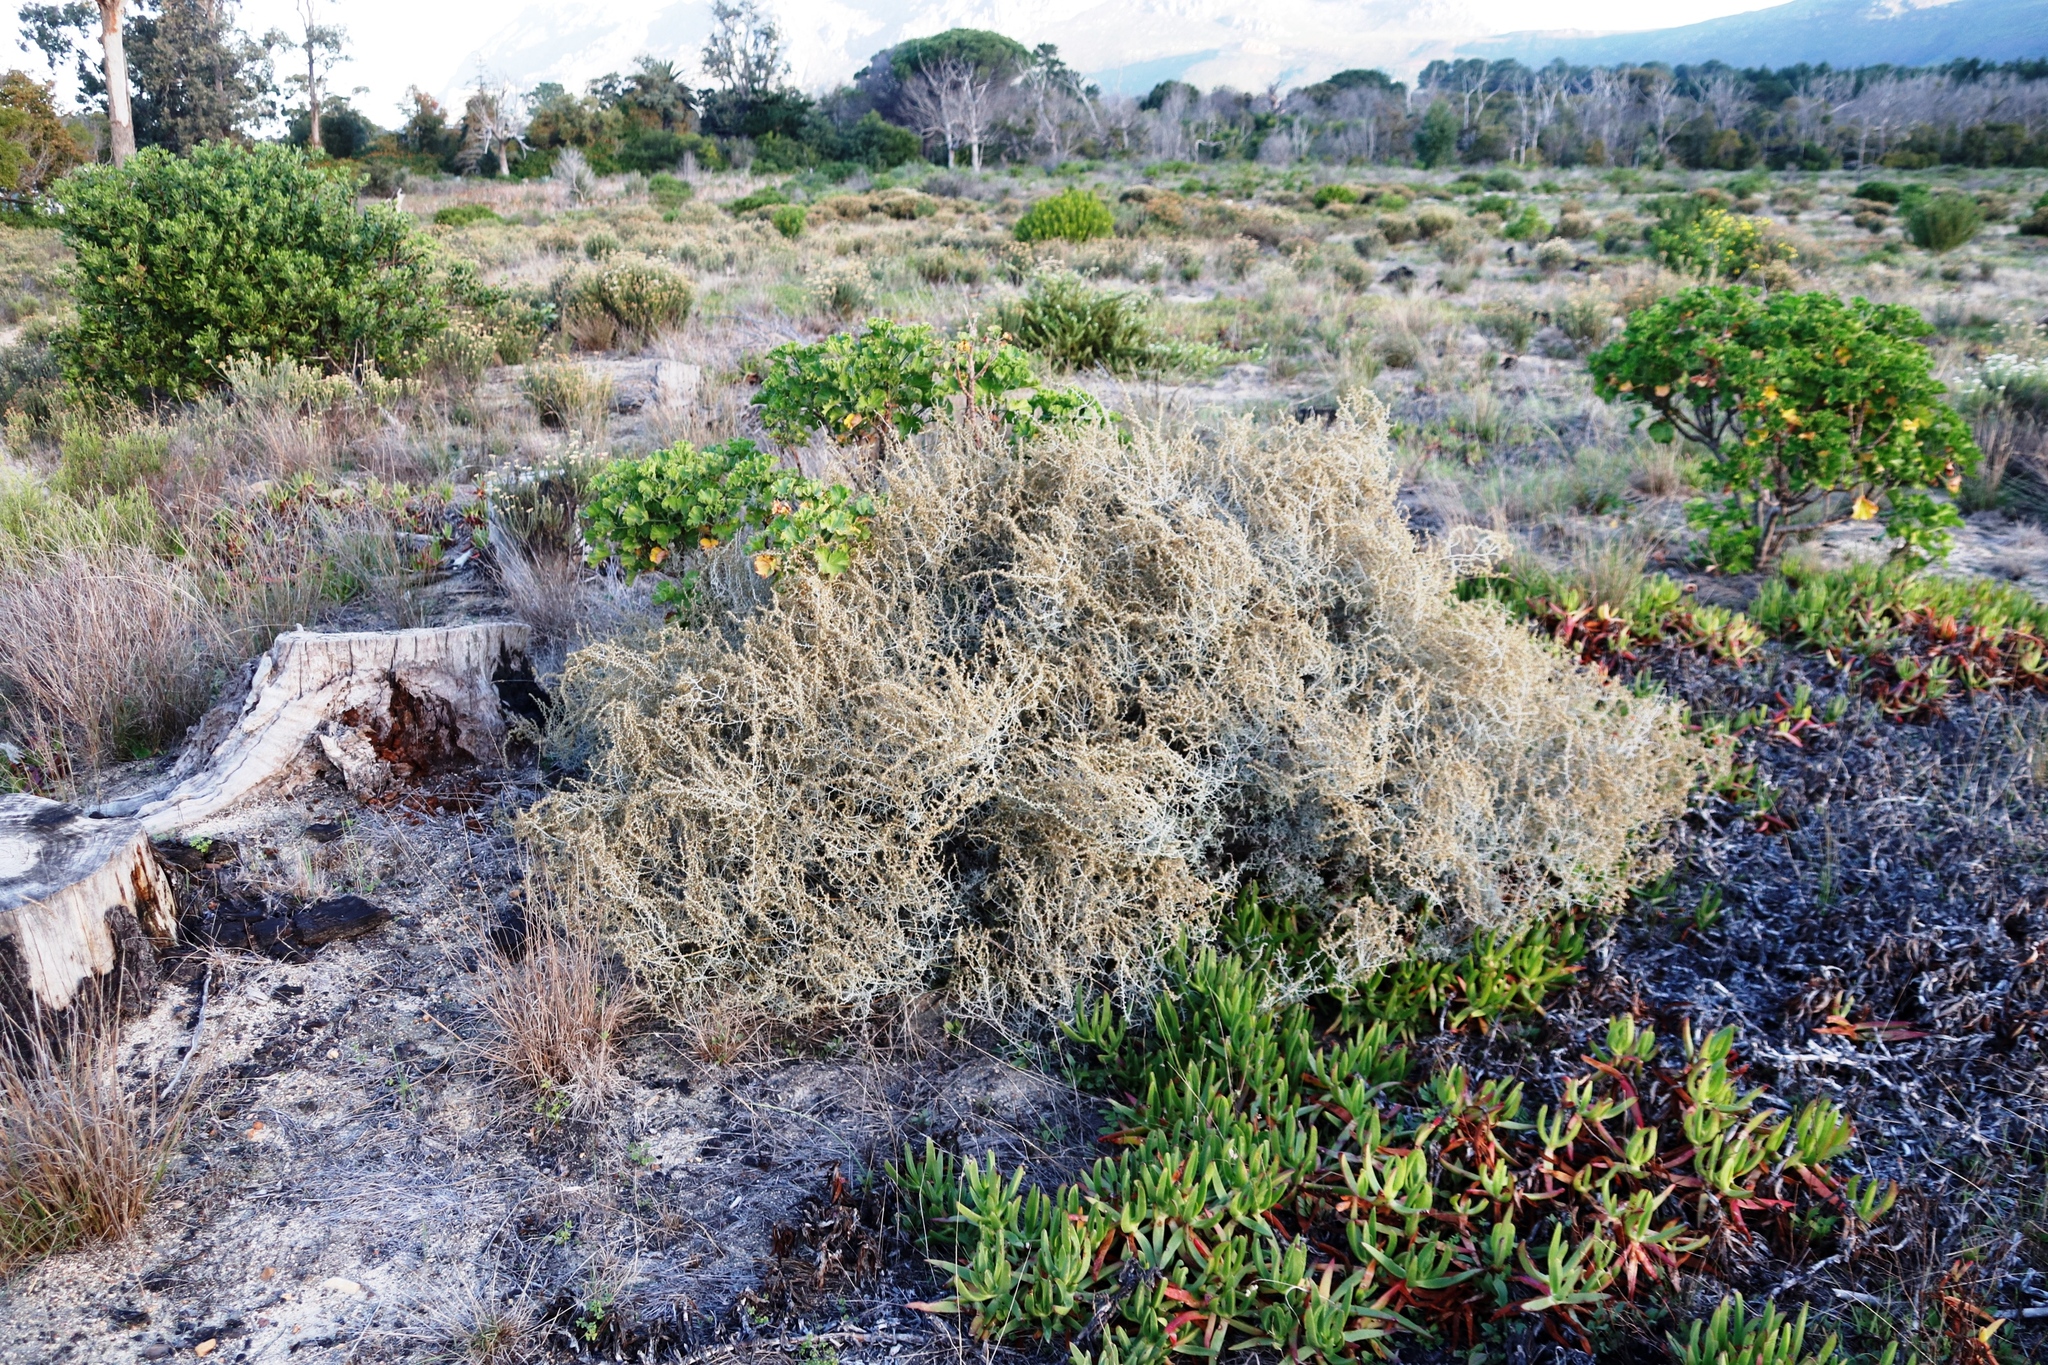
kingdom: Plantae
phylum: Tracheophyta
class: Magnoliopsida
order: Asterales
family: Asteraceae
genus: Seriphium
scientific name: Seriphium plumosum
